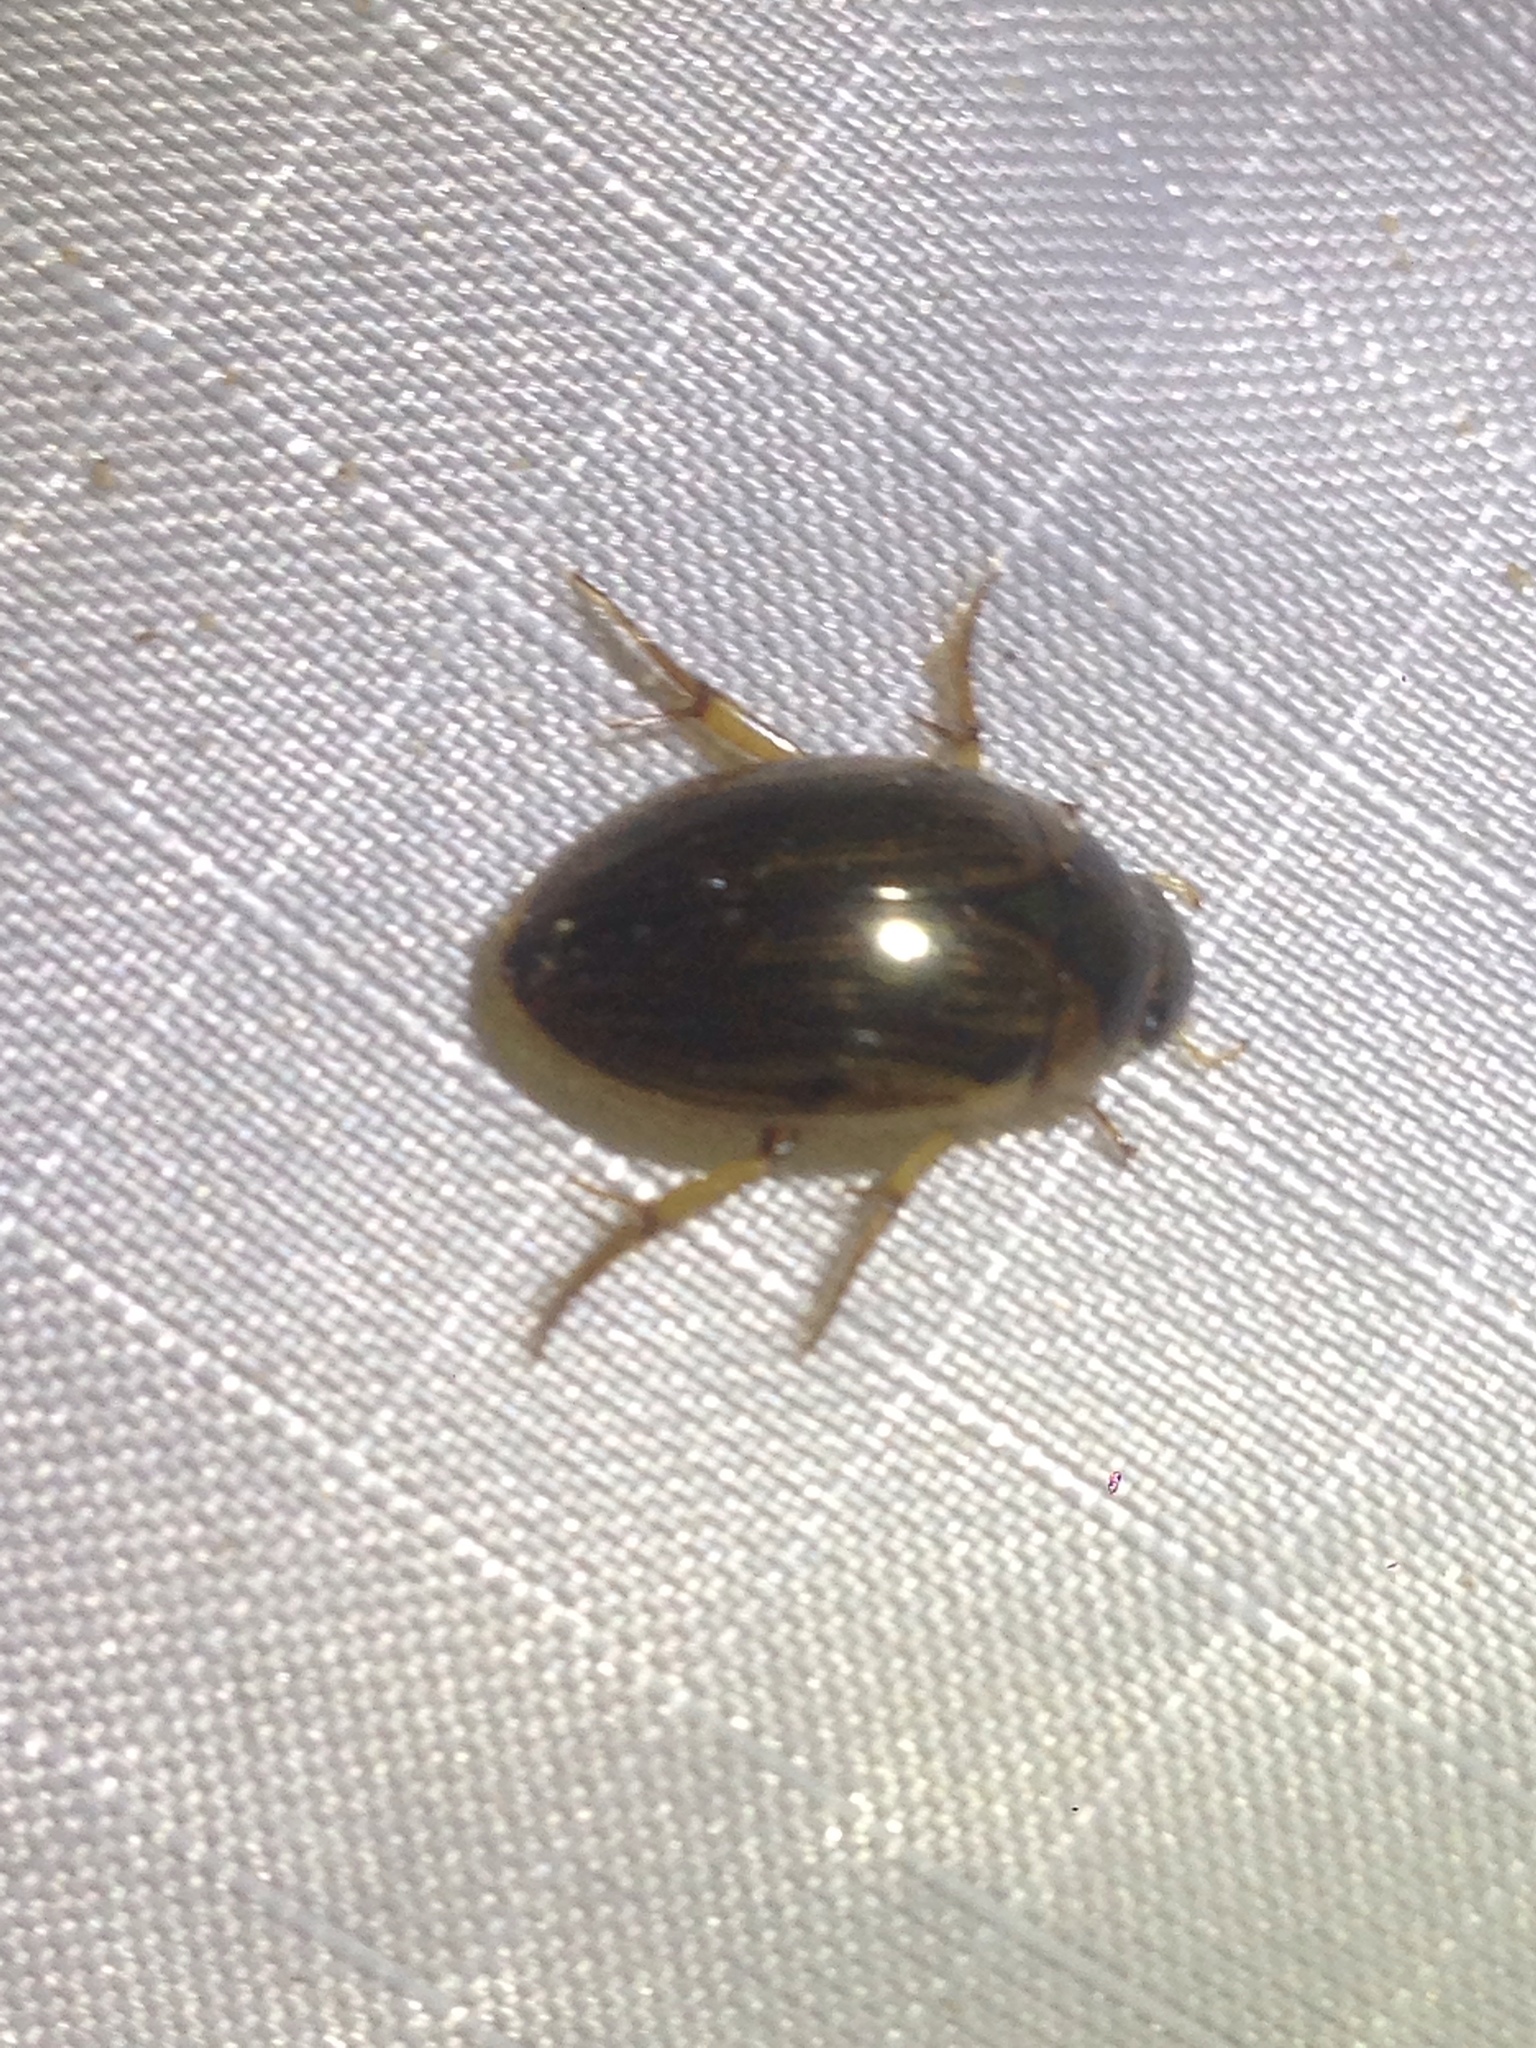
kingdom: Animalia
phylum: Arthropoda
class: Insecta
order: Coleoptera
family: Hydrophilidae
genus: Tropisternus
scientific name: Tropisternus collaris
